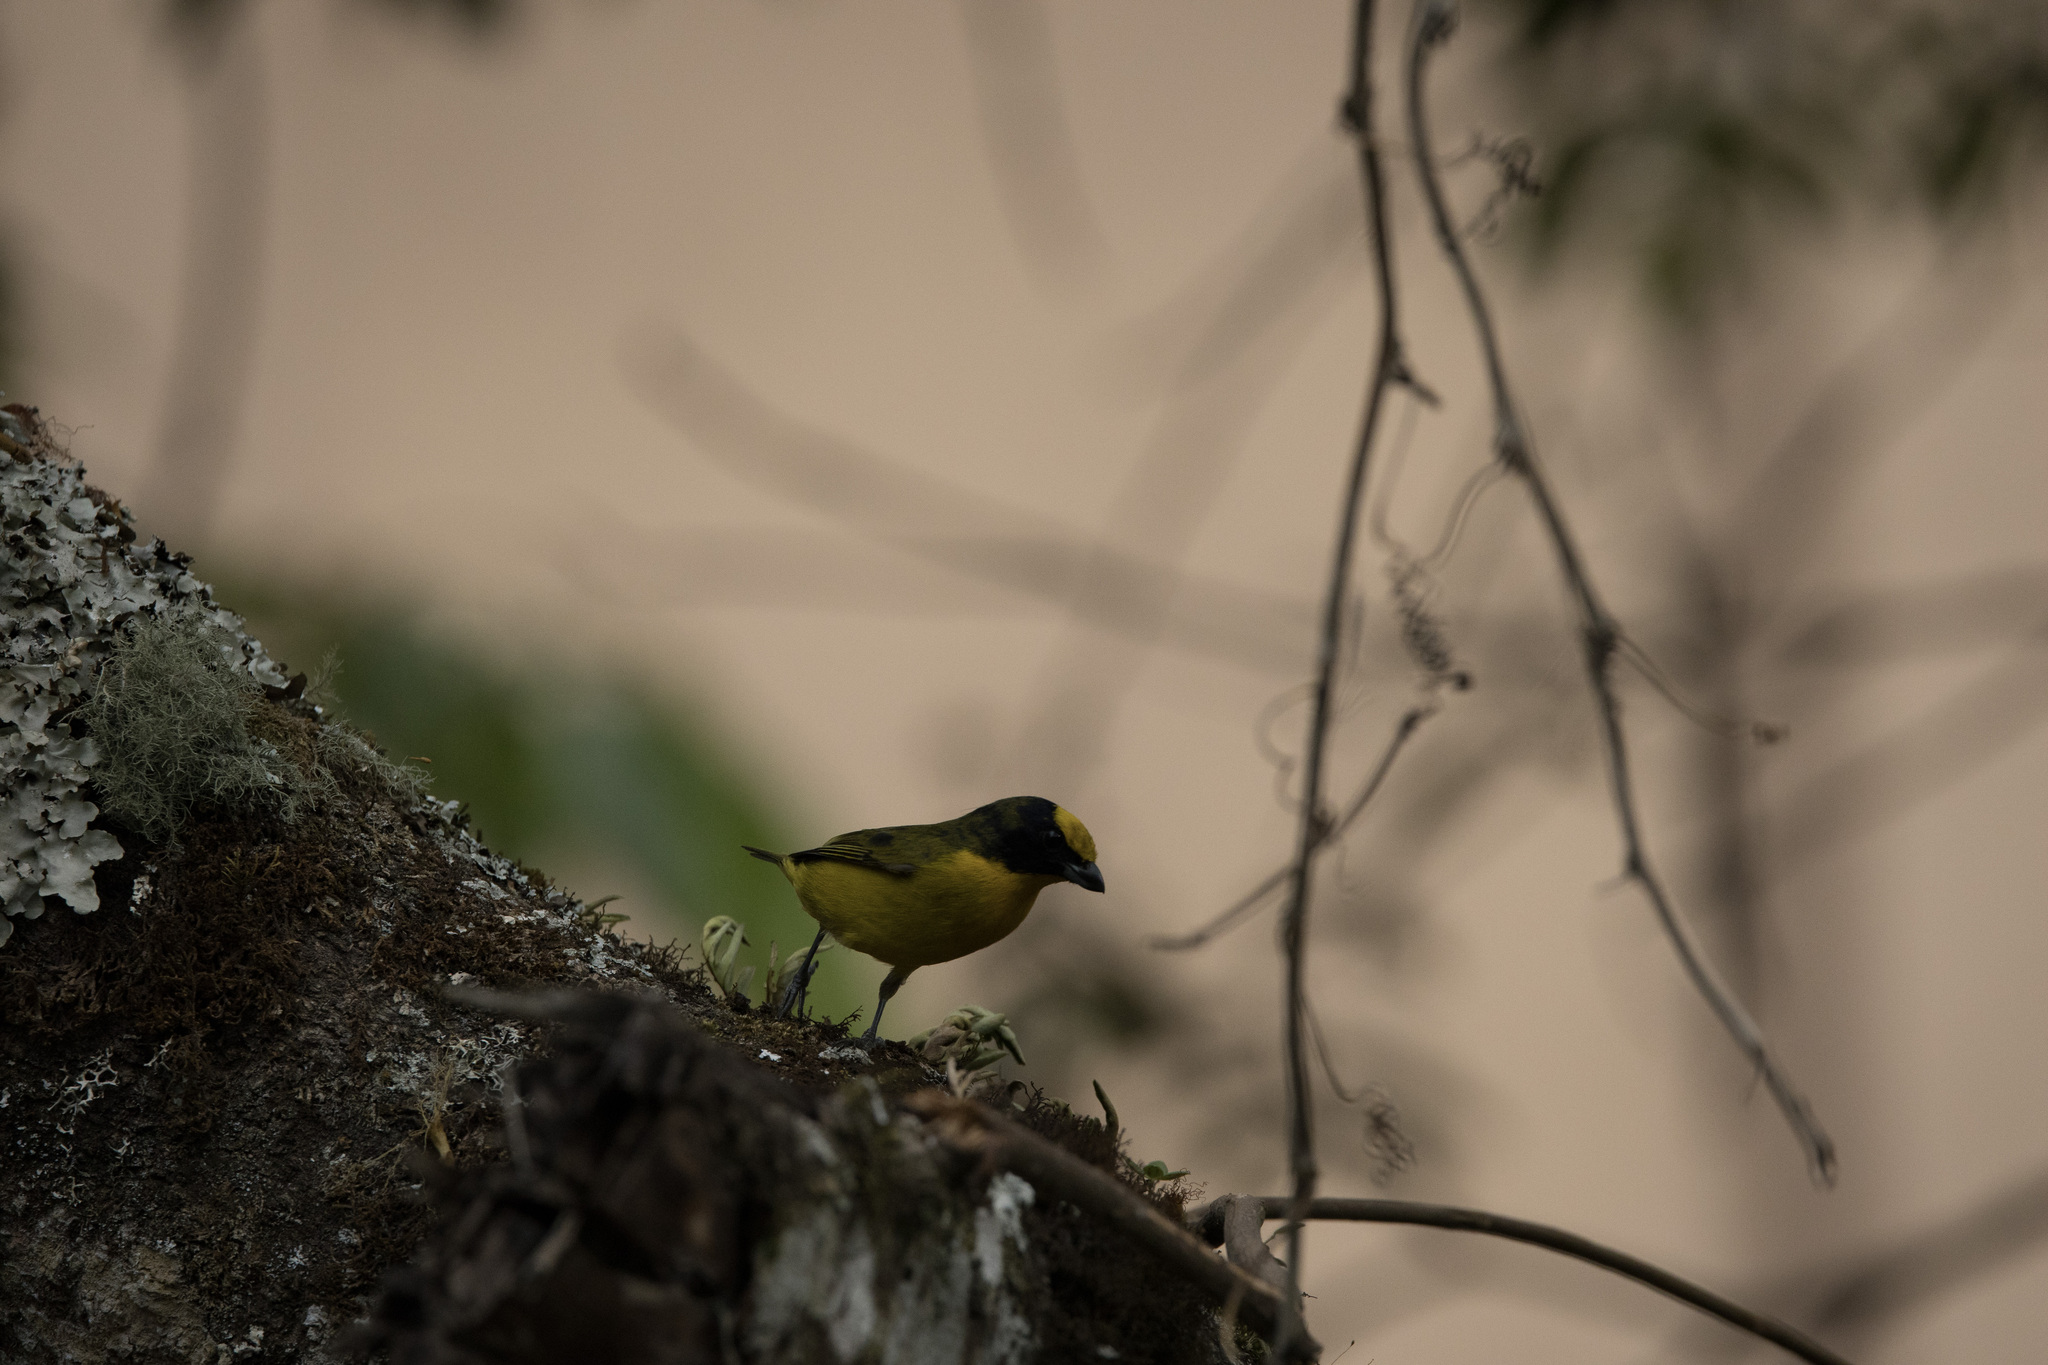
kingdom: Animalia
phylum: Chordata
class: Aves
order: Passeriformes
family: Fringillidae
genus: Euphonia
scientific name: Euphonia laniirostris
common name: Thick-billed euphonia
